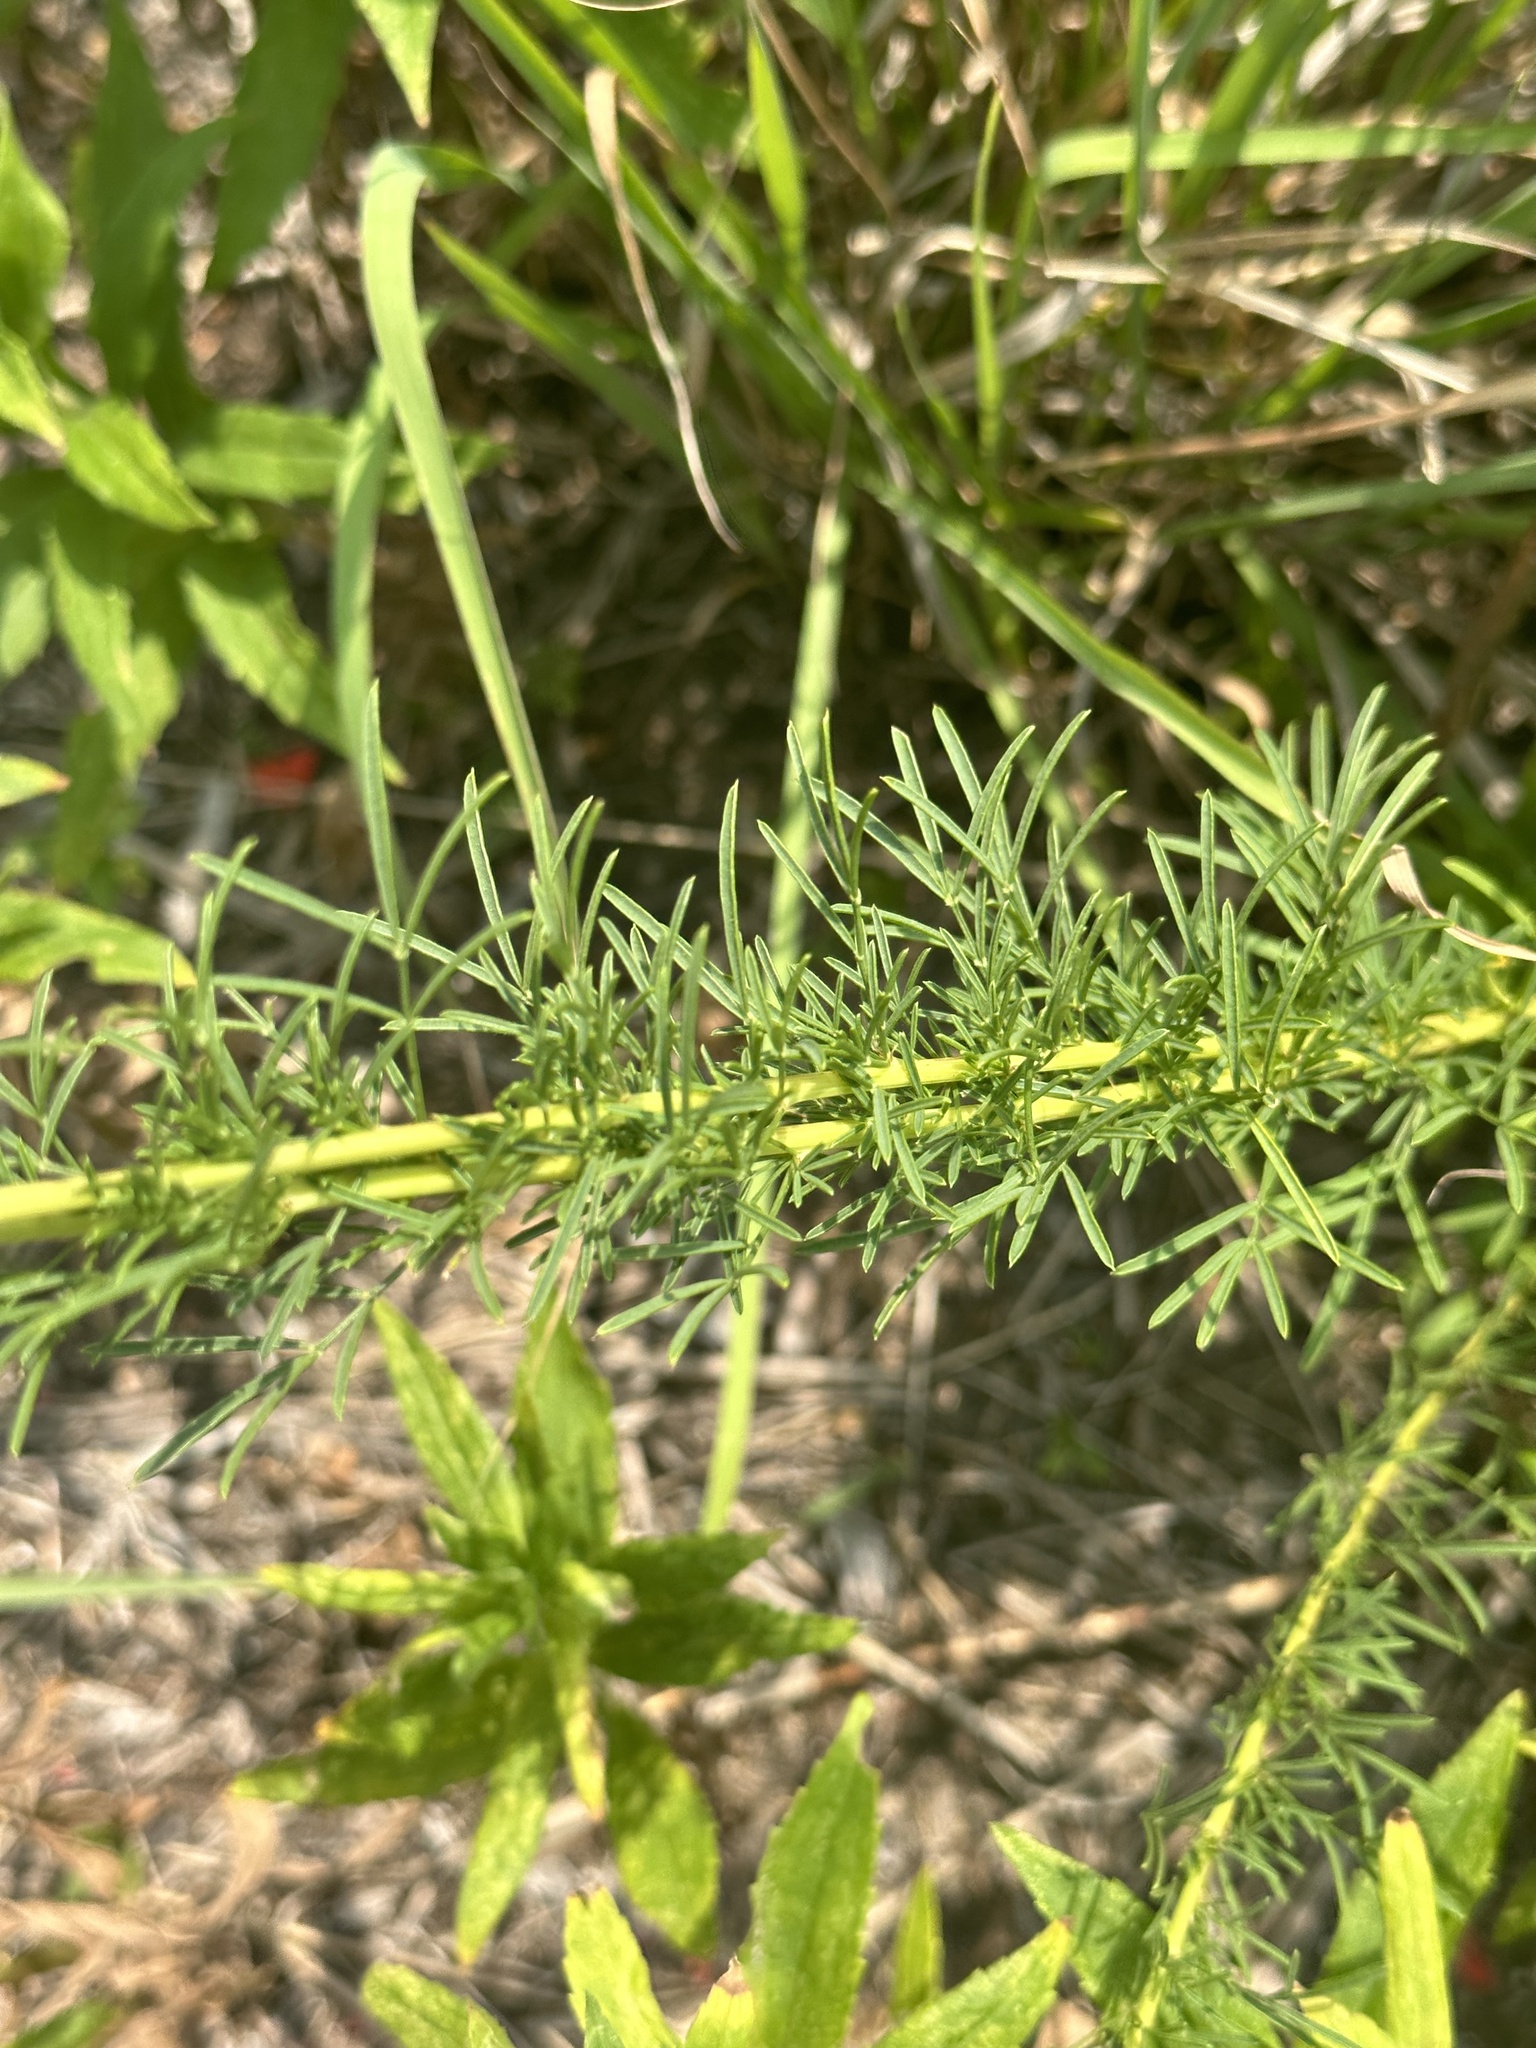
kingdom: Plantae
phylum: Tracheophyta
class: Magnoliopsida
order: Fabales
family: Fabaceae
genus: Dalea
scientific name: Dalea purpurea
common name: Purple prairie-clover
